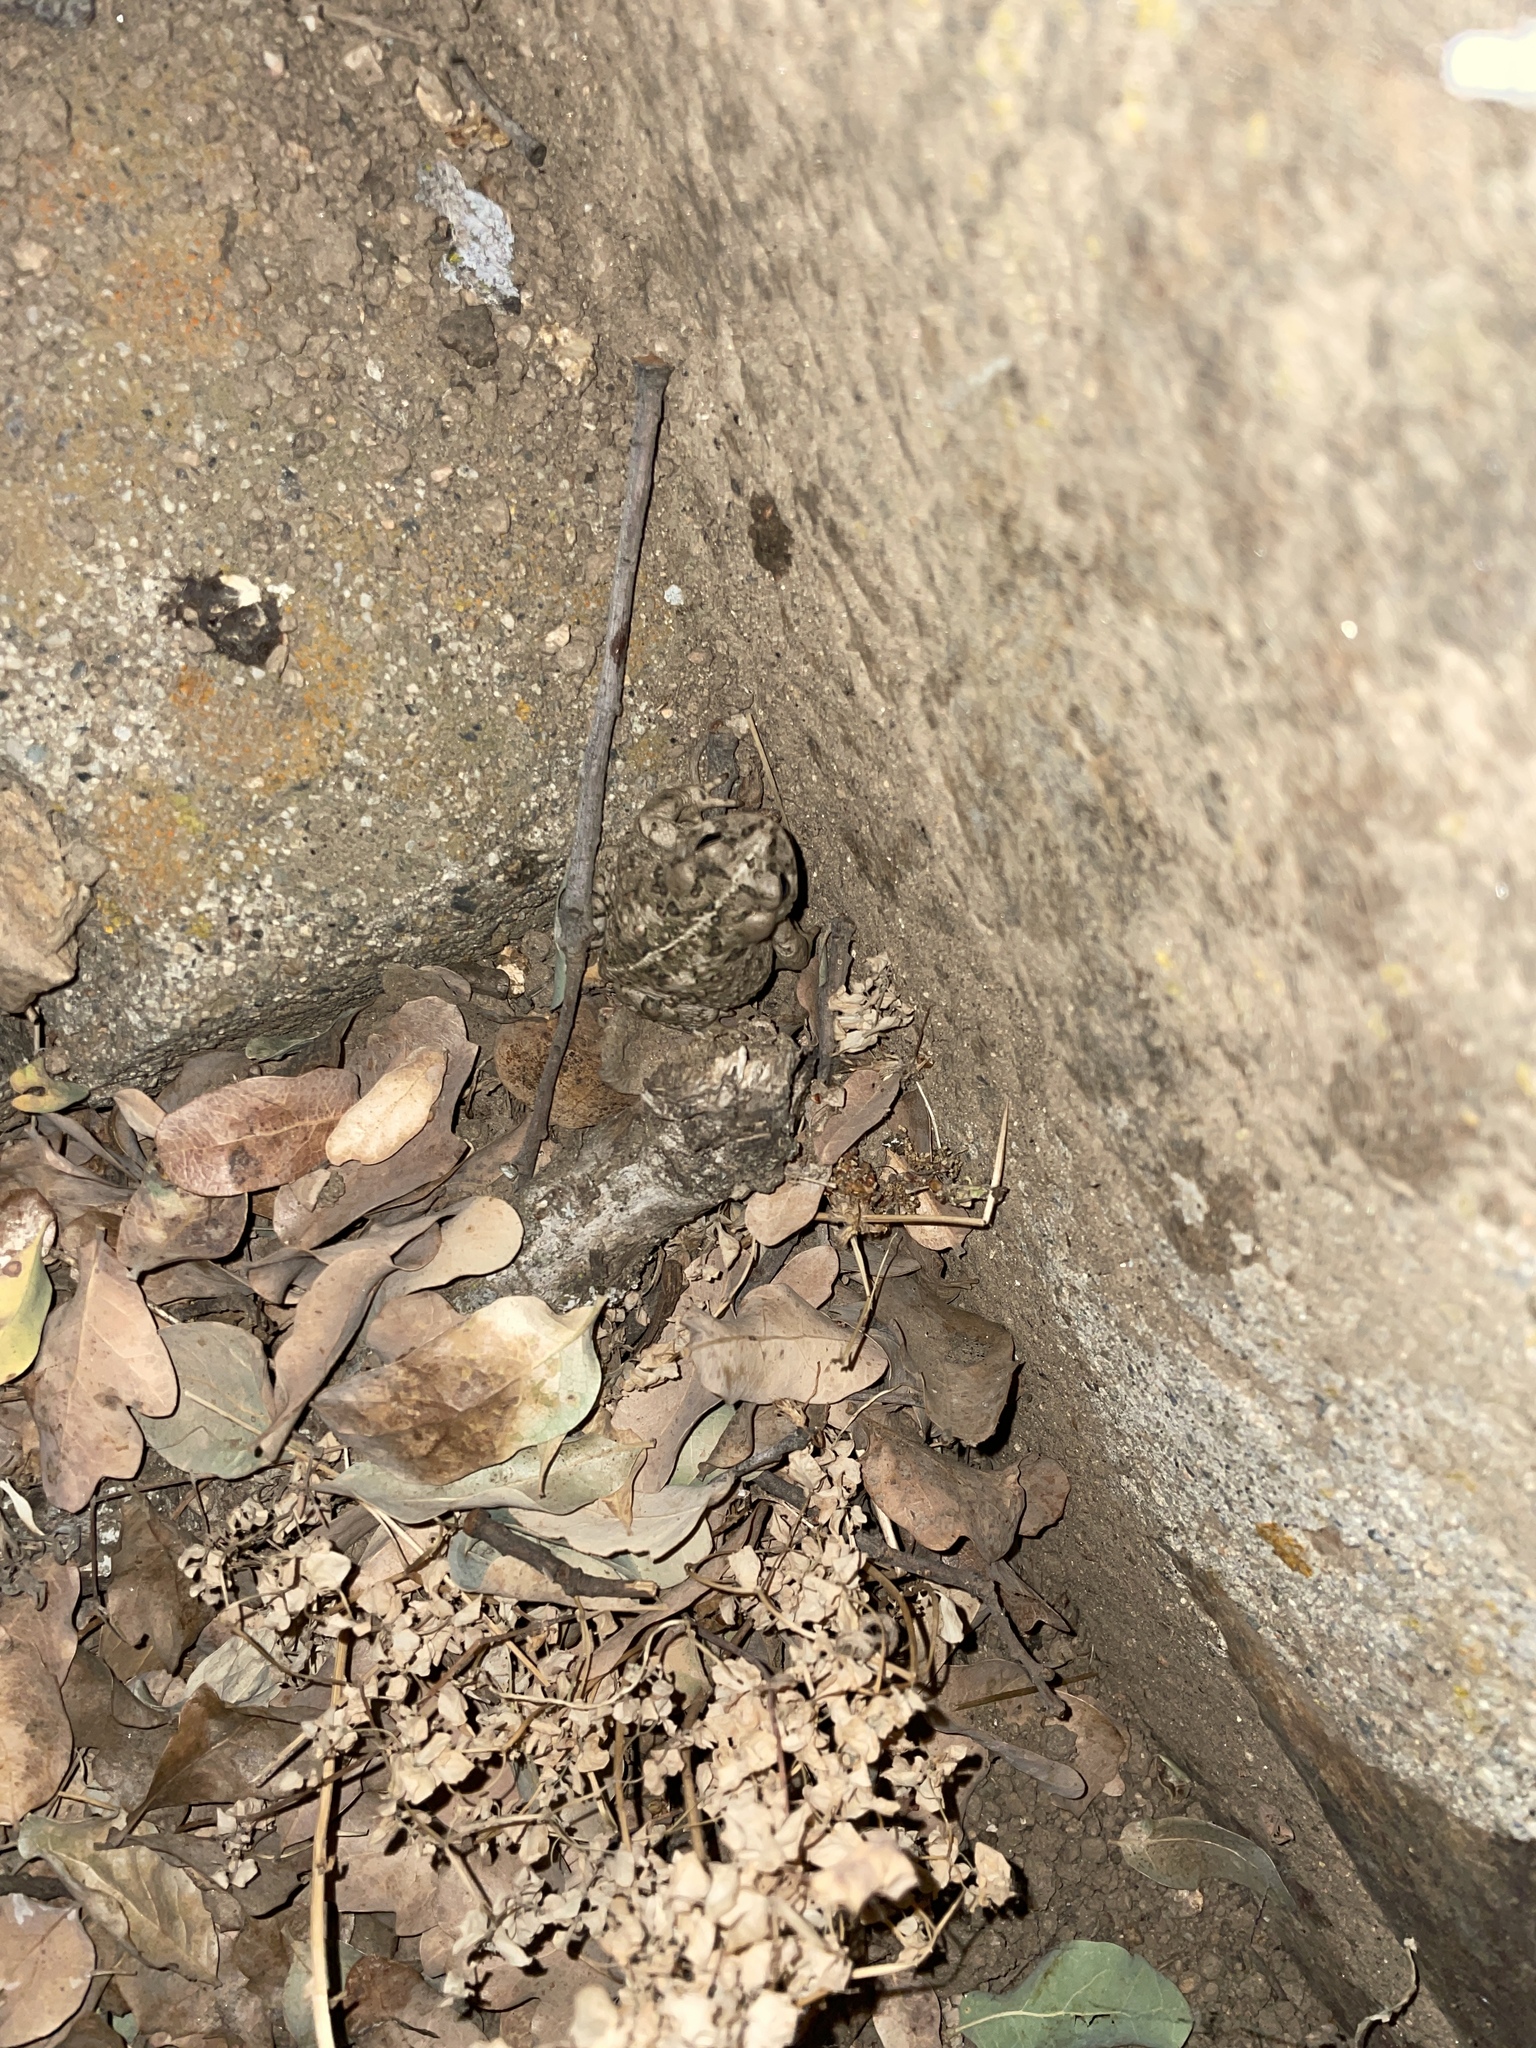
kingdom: Animalia
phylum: Chordata
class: Amphibia
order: Anura
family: Bufonidae
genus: Anaxyrus
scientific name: Anaxyrus boreas
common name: Western toad
